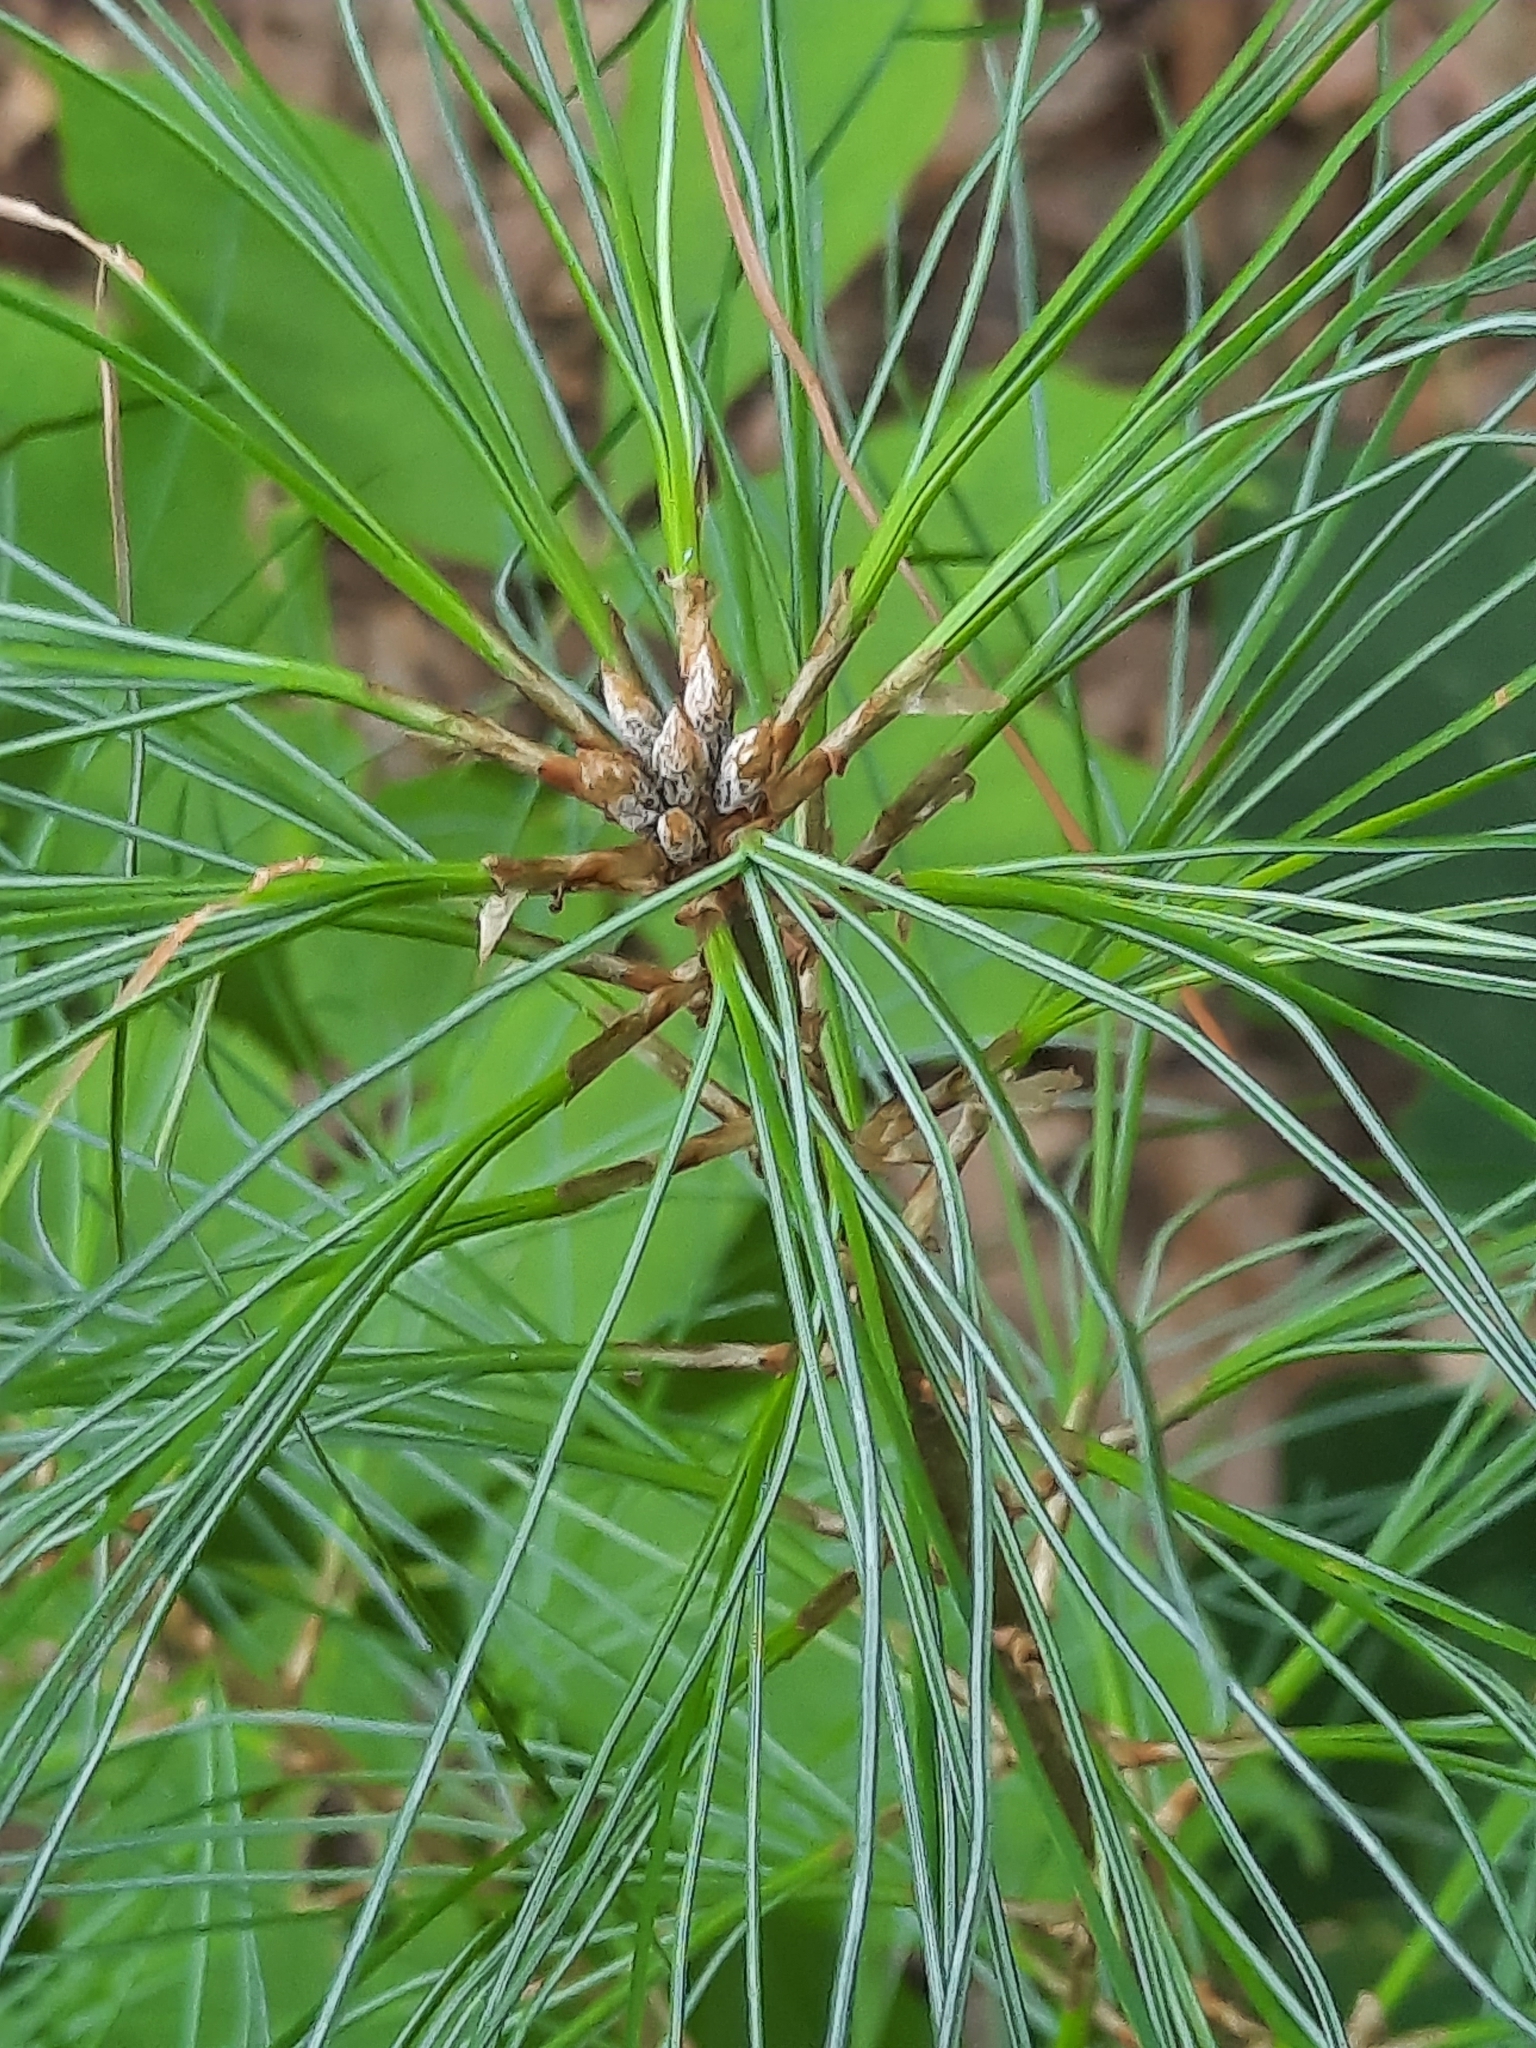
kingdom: Plantae
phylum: Tracheophyta
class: Pinopsida
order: Pinales
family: Pinaceae
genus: Pinus
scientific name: Pinus strobus
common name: Weymouth pine
